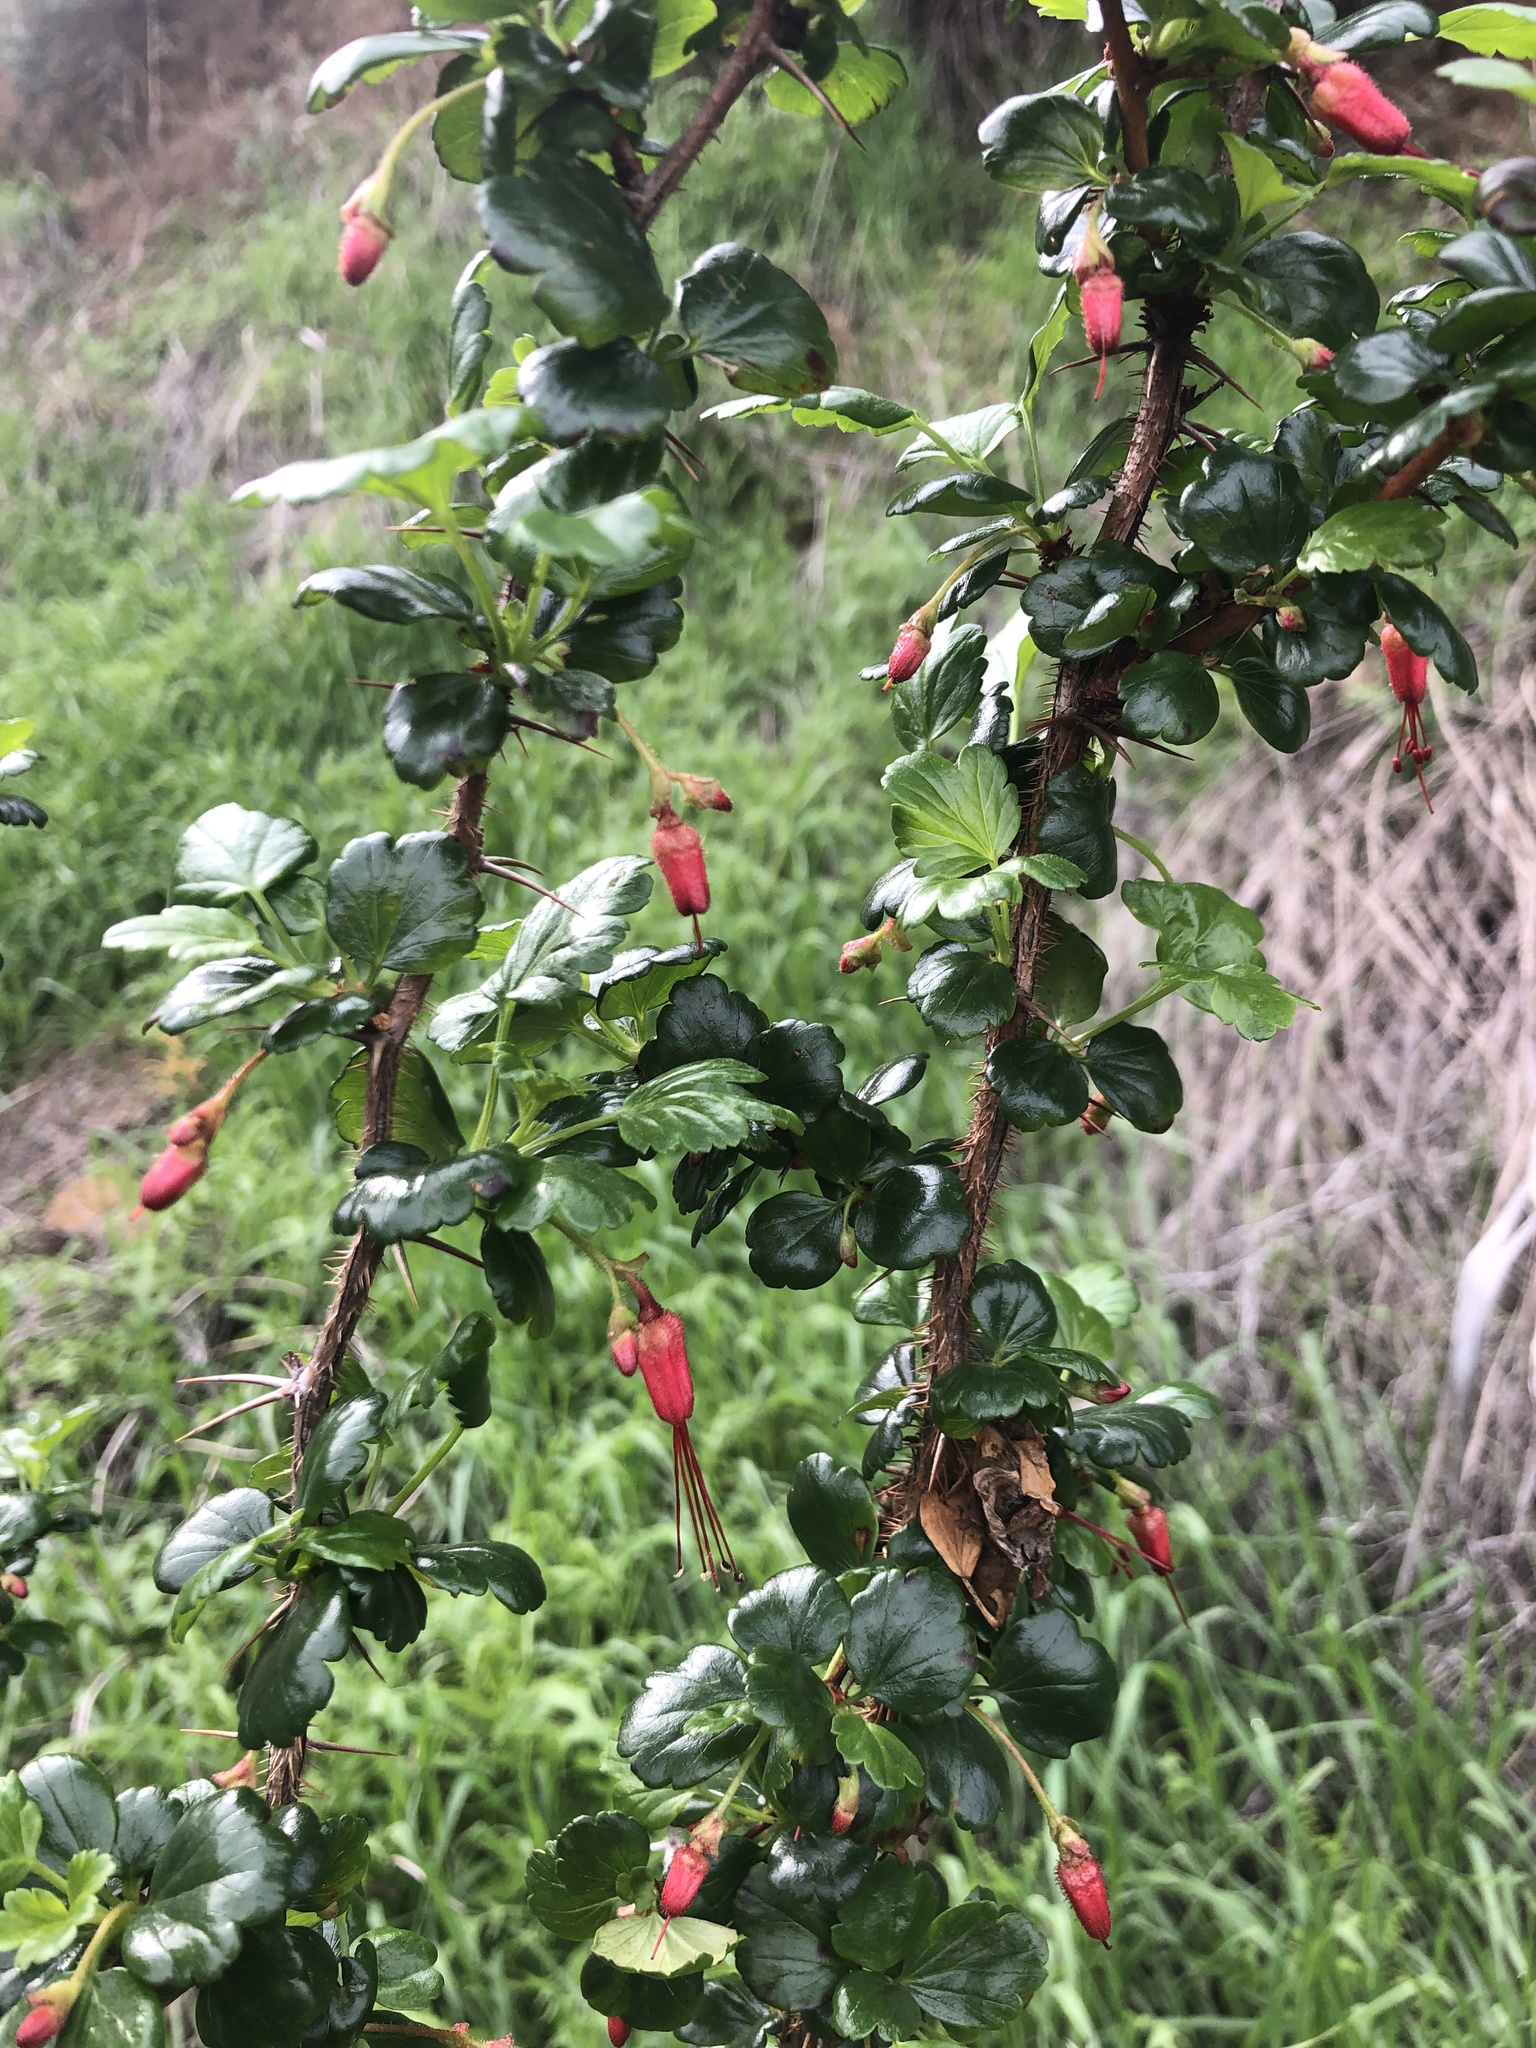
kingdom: Plantae
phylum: Tracheophyta
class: Magnoliopsida
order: Saxifragales
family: Grossulariaceae
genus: Ribes
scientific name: Ribes speciosum
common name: Fuchsia-flower gooseberry
